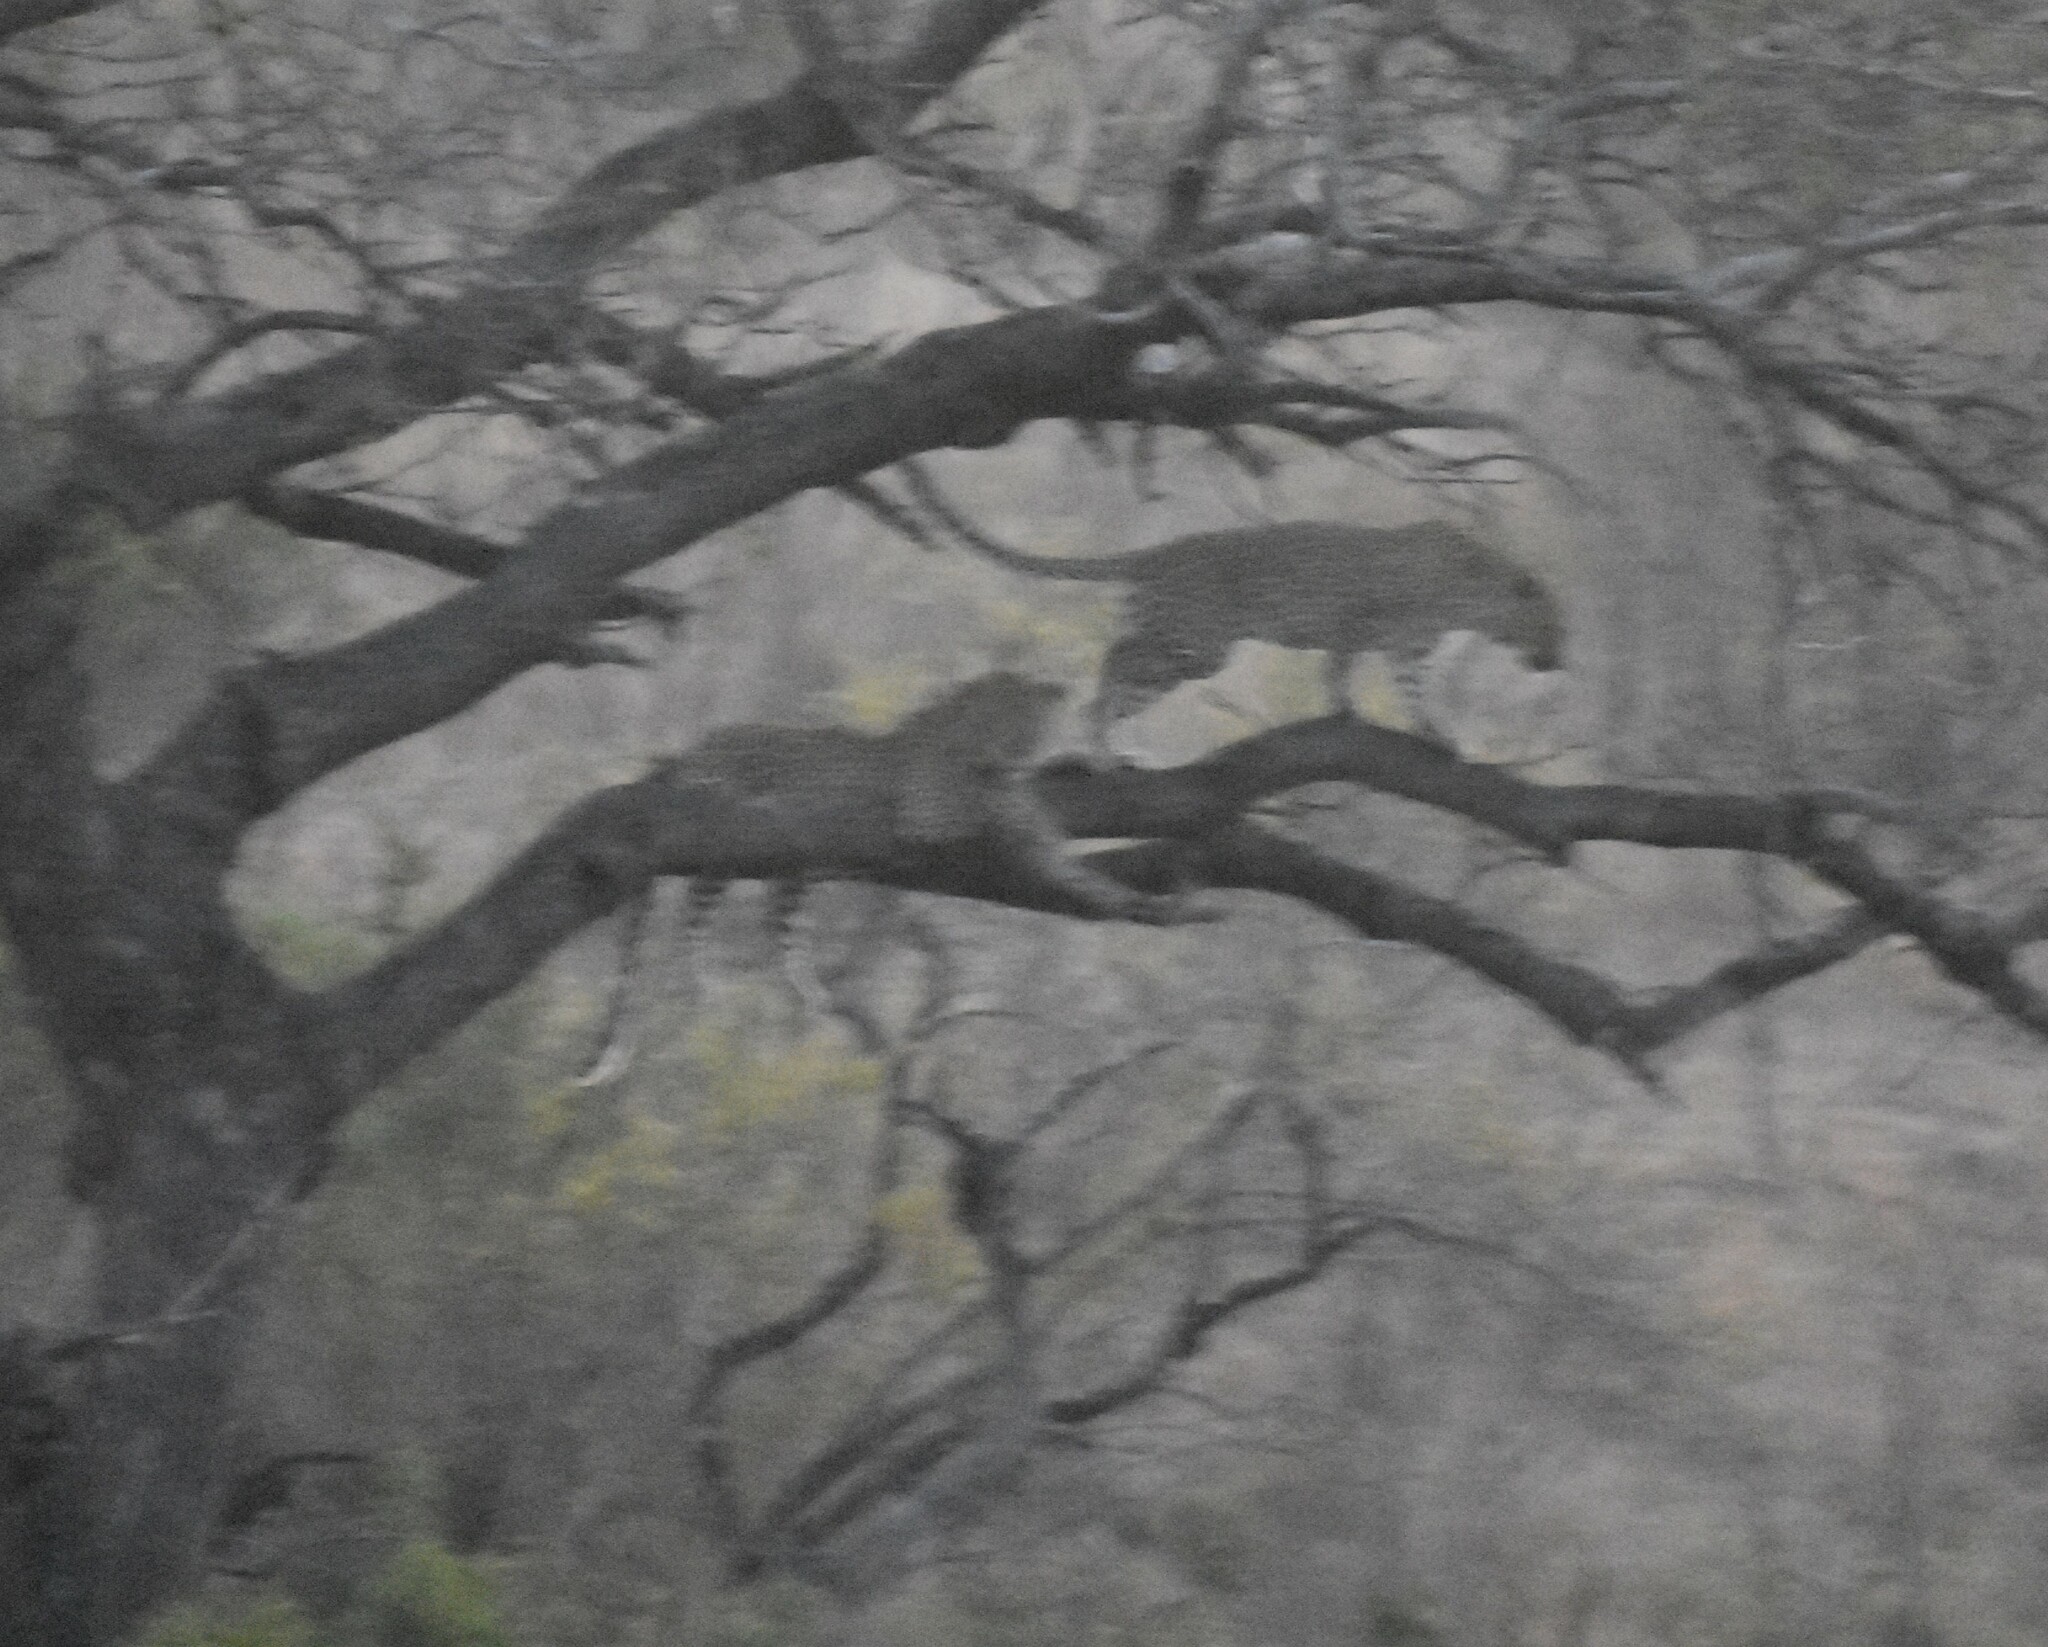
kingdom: Animalia
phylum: Chordata
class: Mammalia
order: Carnivora
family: Felidae
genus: Panthera
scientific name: Panthera pardus
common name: Leopard
